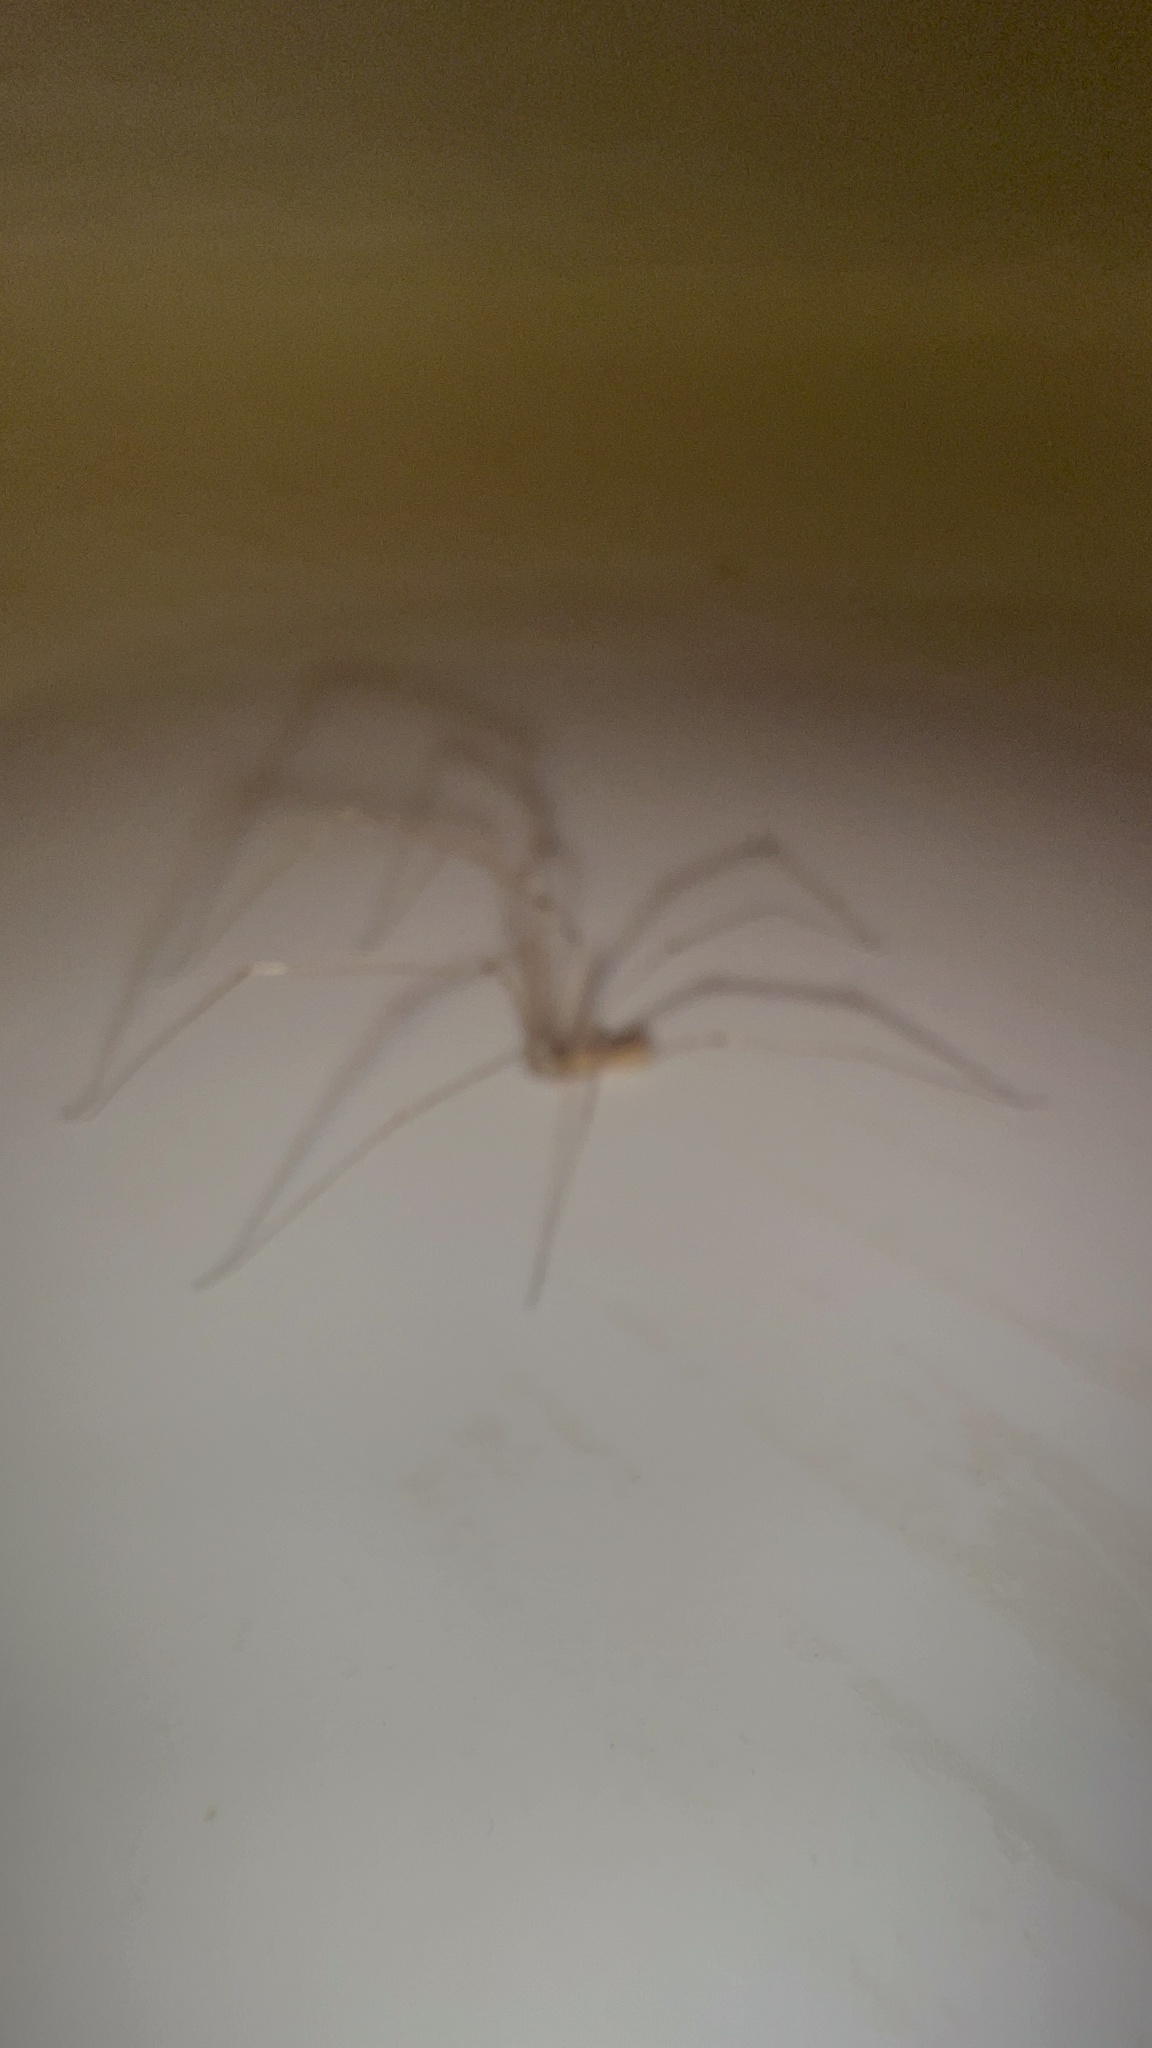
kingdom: Animalia
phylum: Arthropoda
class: Arachnida
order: Araneae
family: Pholcidae
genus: Pholcus
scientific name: Pholcus phalangioides
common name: Longbodied cellar spider
